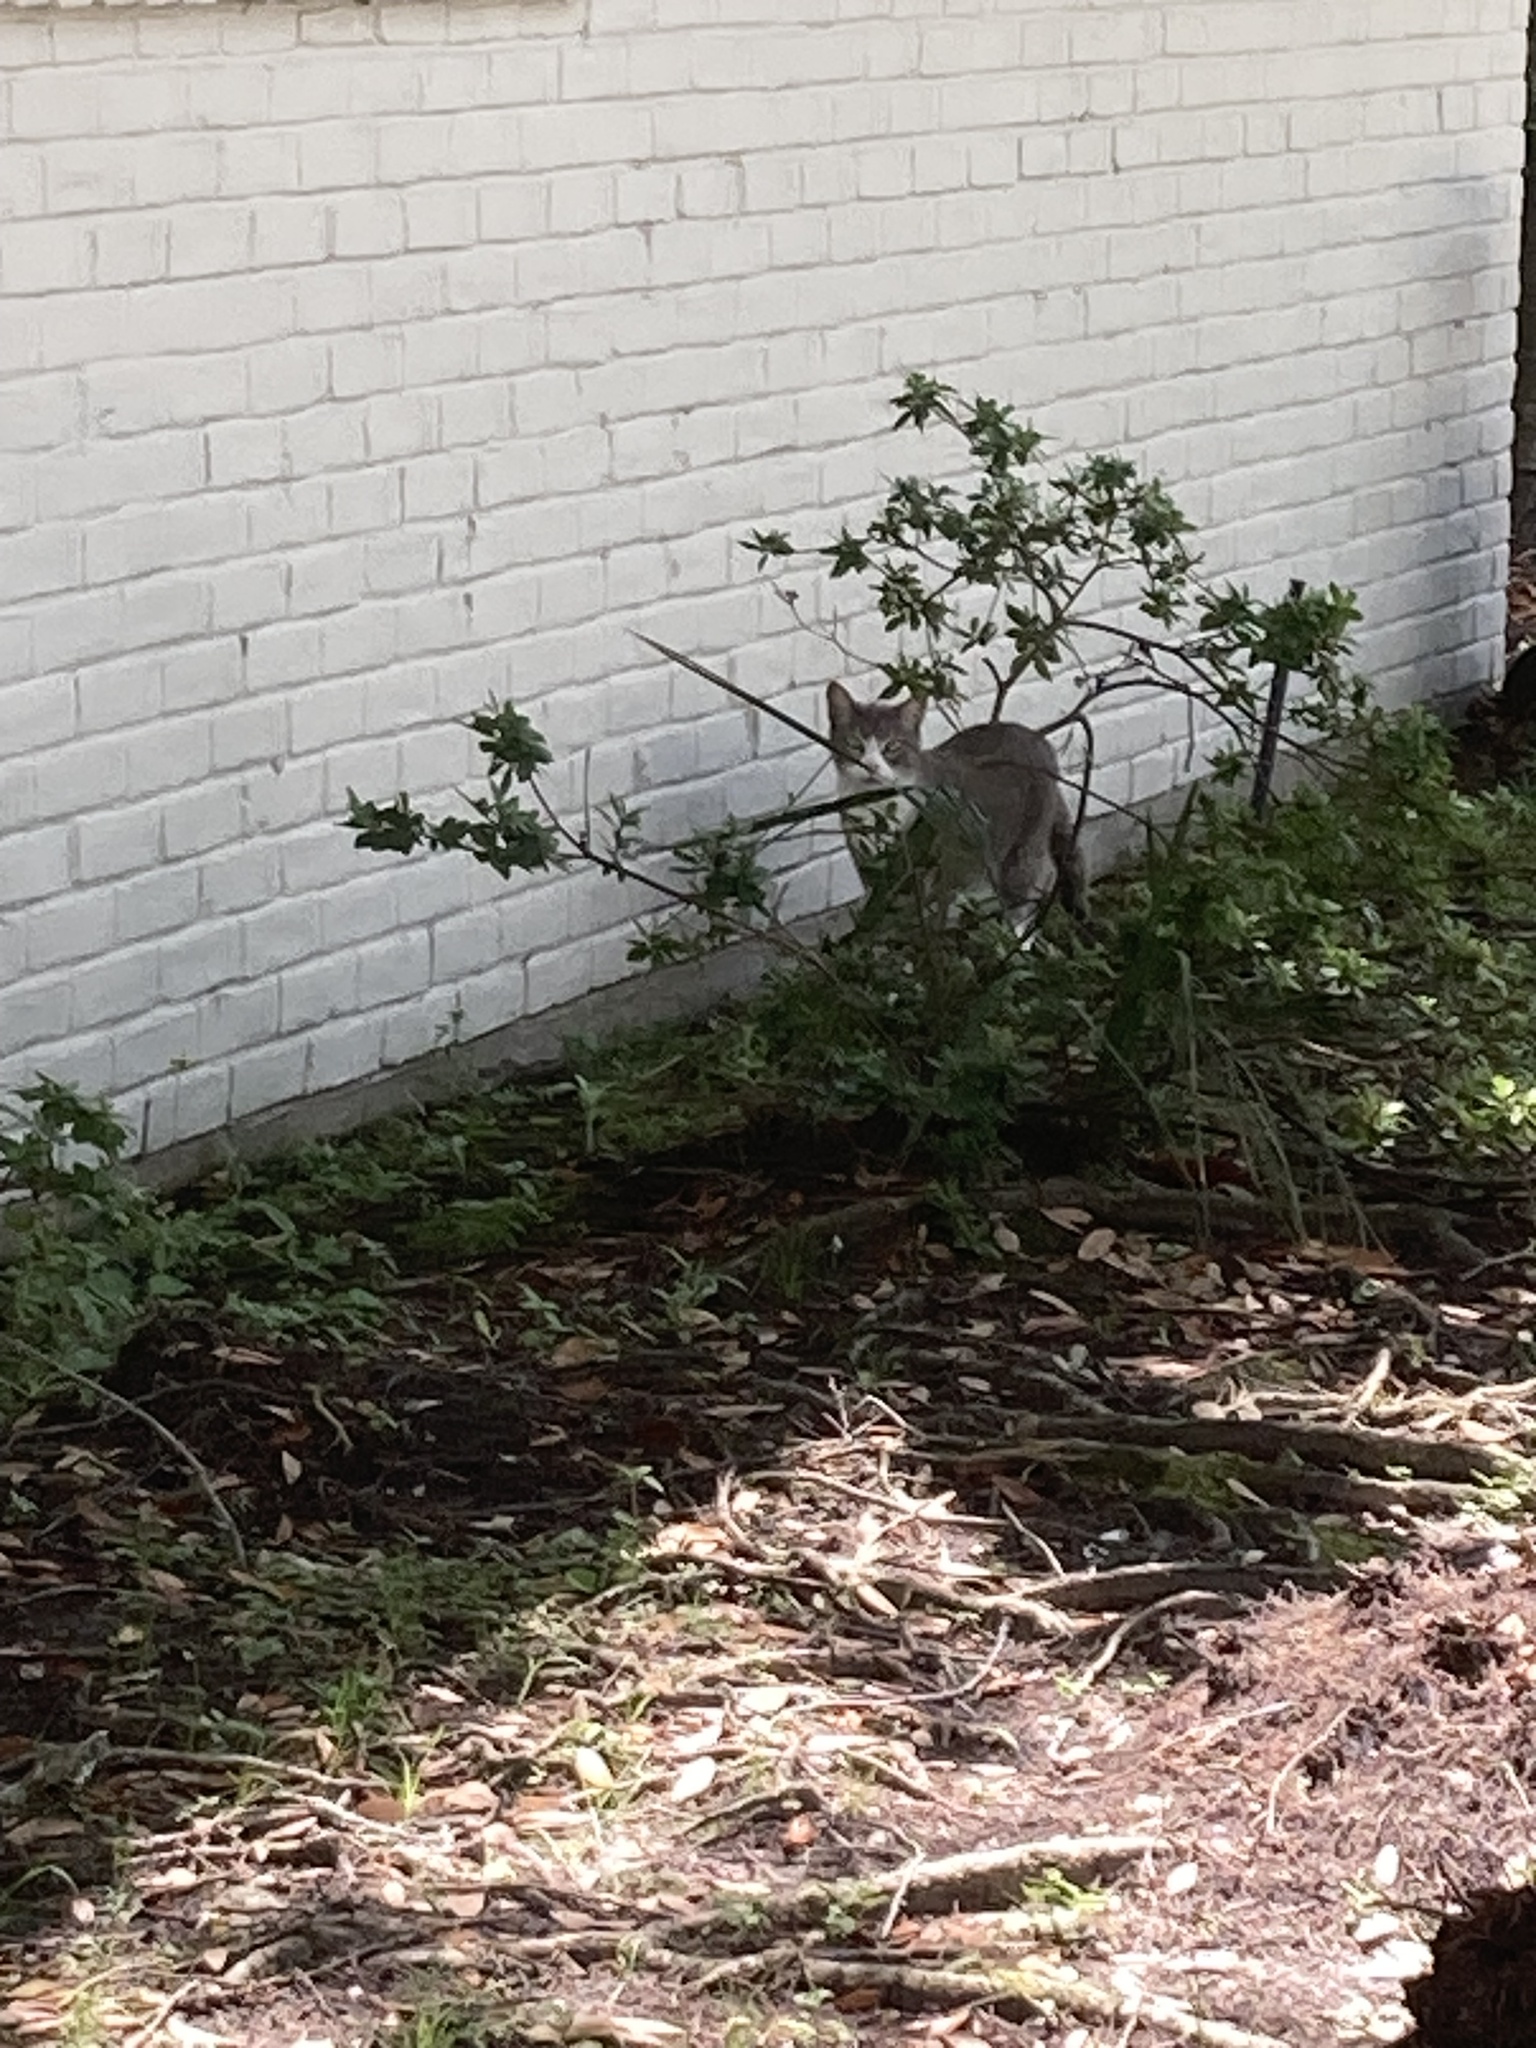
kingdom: Animalia
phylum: Chordata
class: Mammalia
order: Carnivora
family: Felidae
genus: Felis
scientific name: Felis catus
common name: Domestic cat
